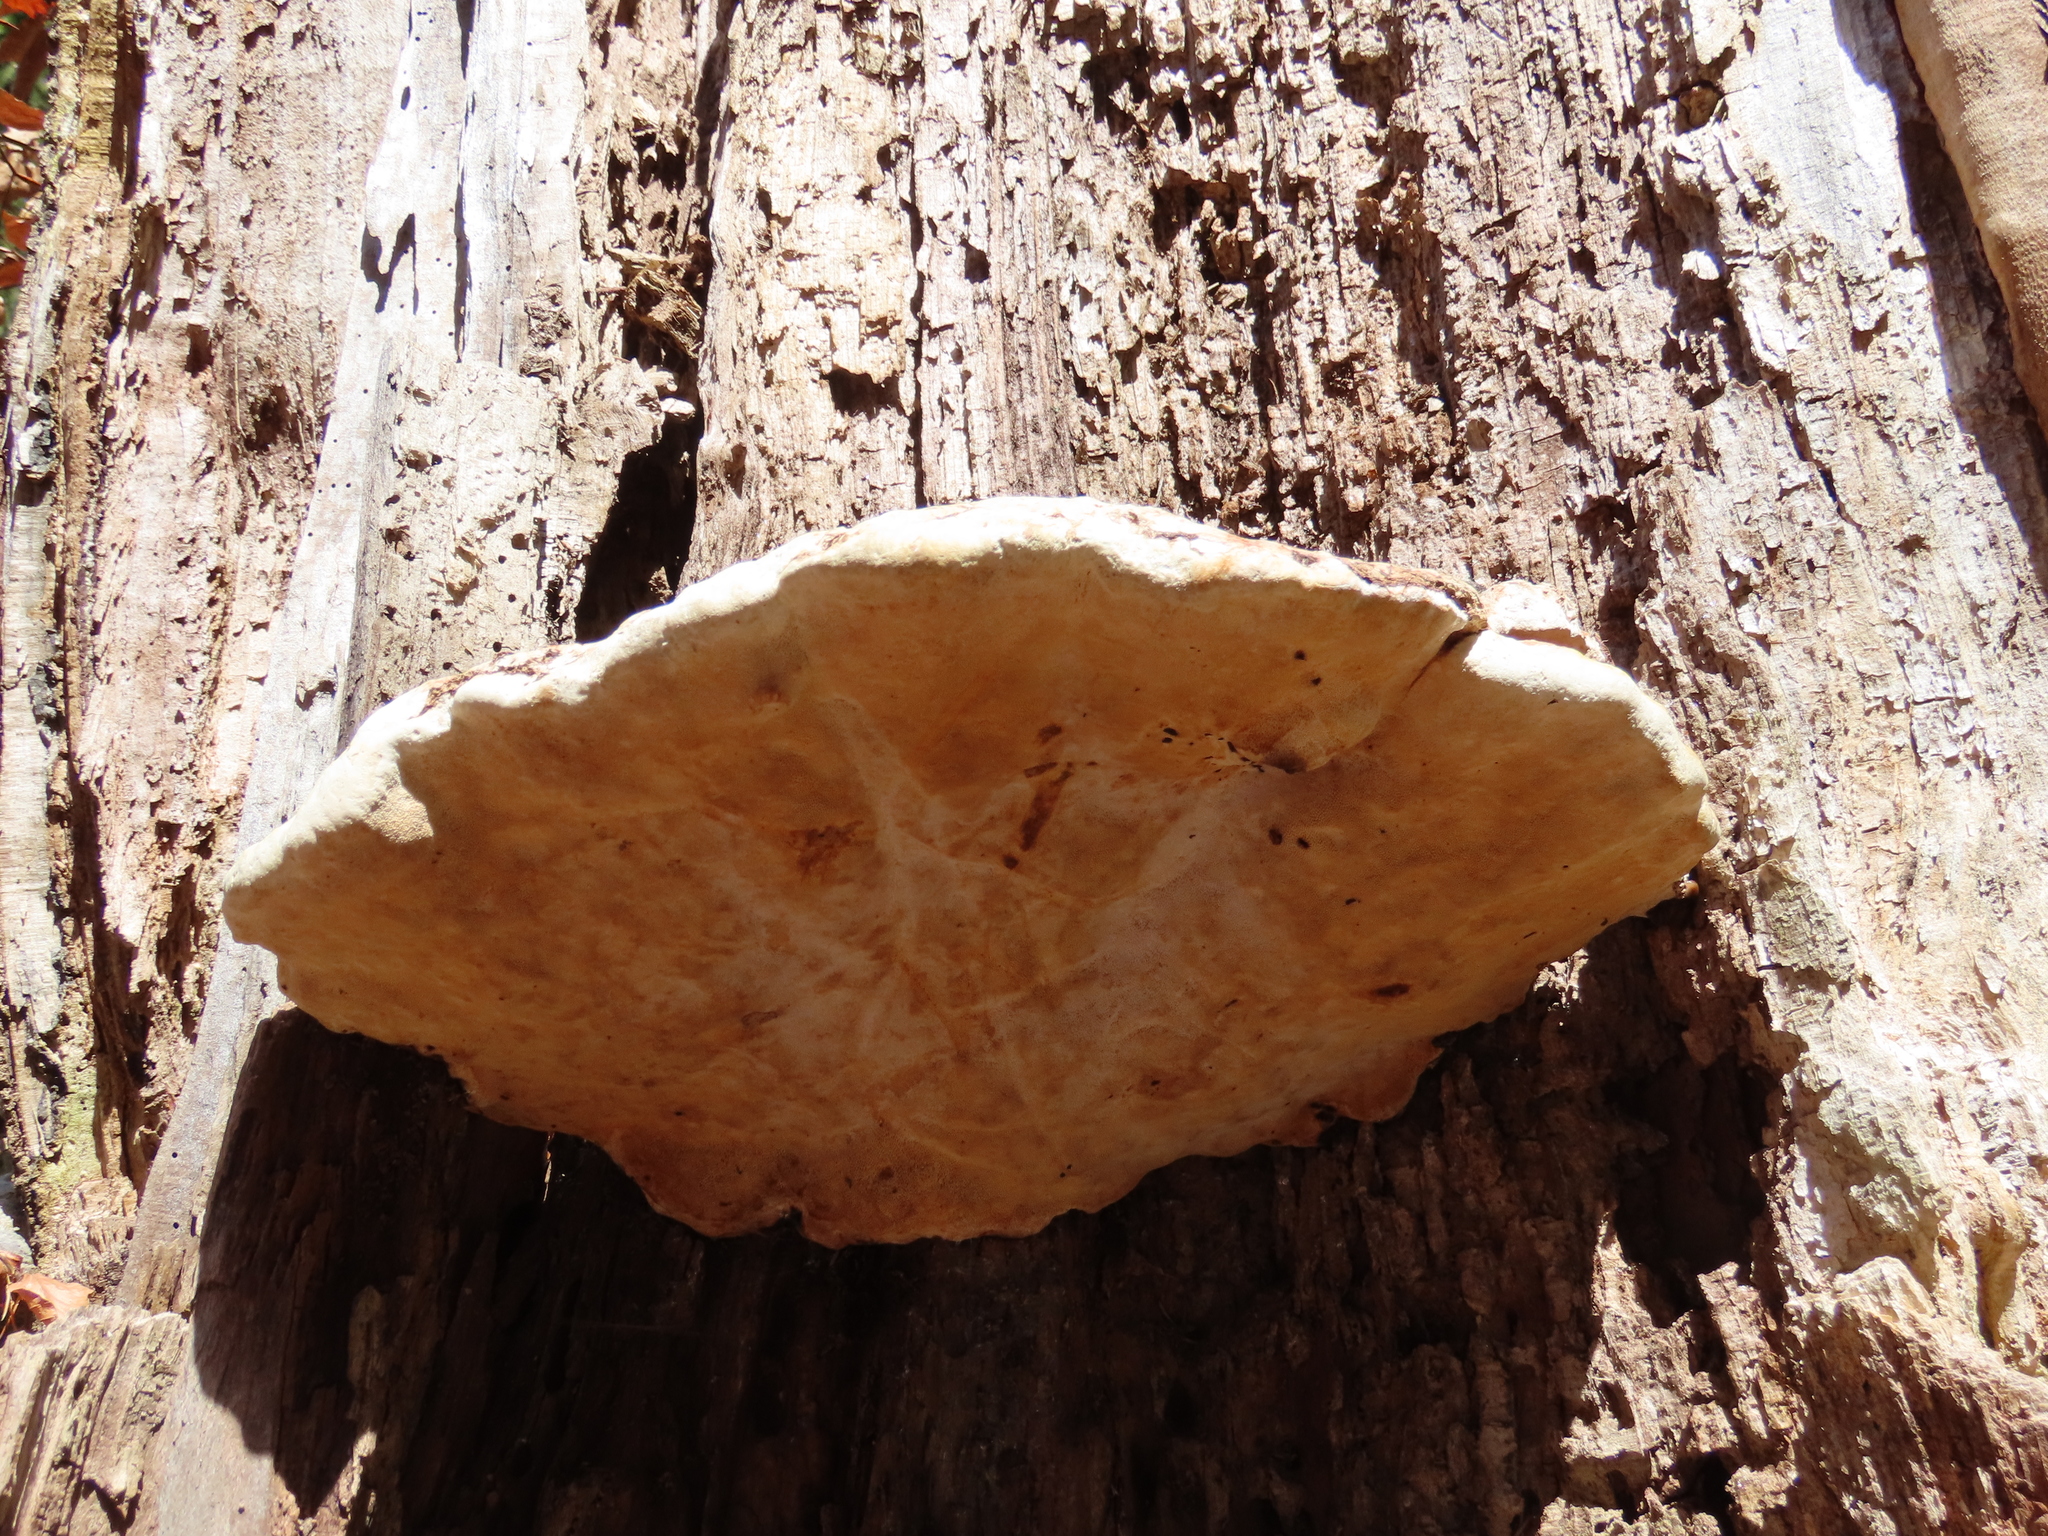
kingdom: Fungi
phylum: Basidiomycota
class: Agaricomycetes
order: Polyporales
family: Fomitopsidaceae
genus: Fomitopsis
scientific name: Fomitopsis pinicola
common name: Red-belted bracket
